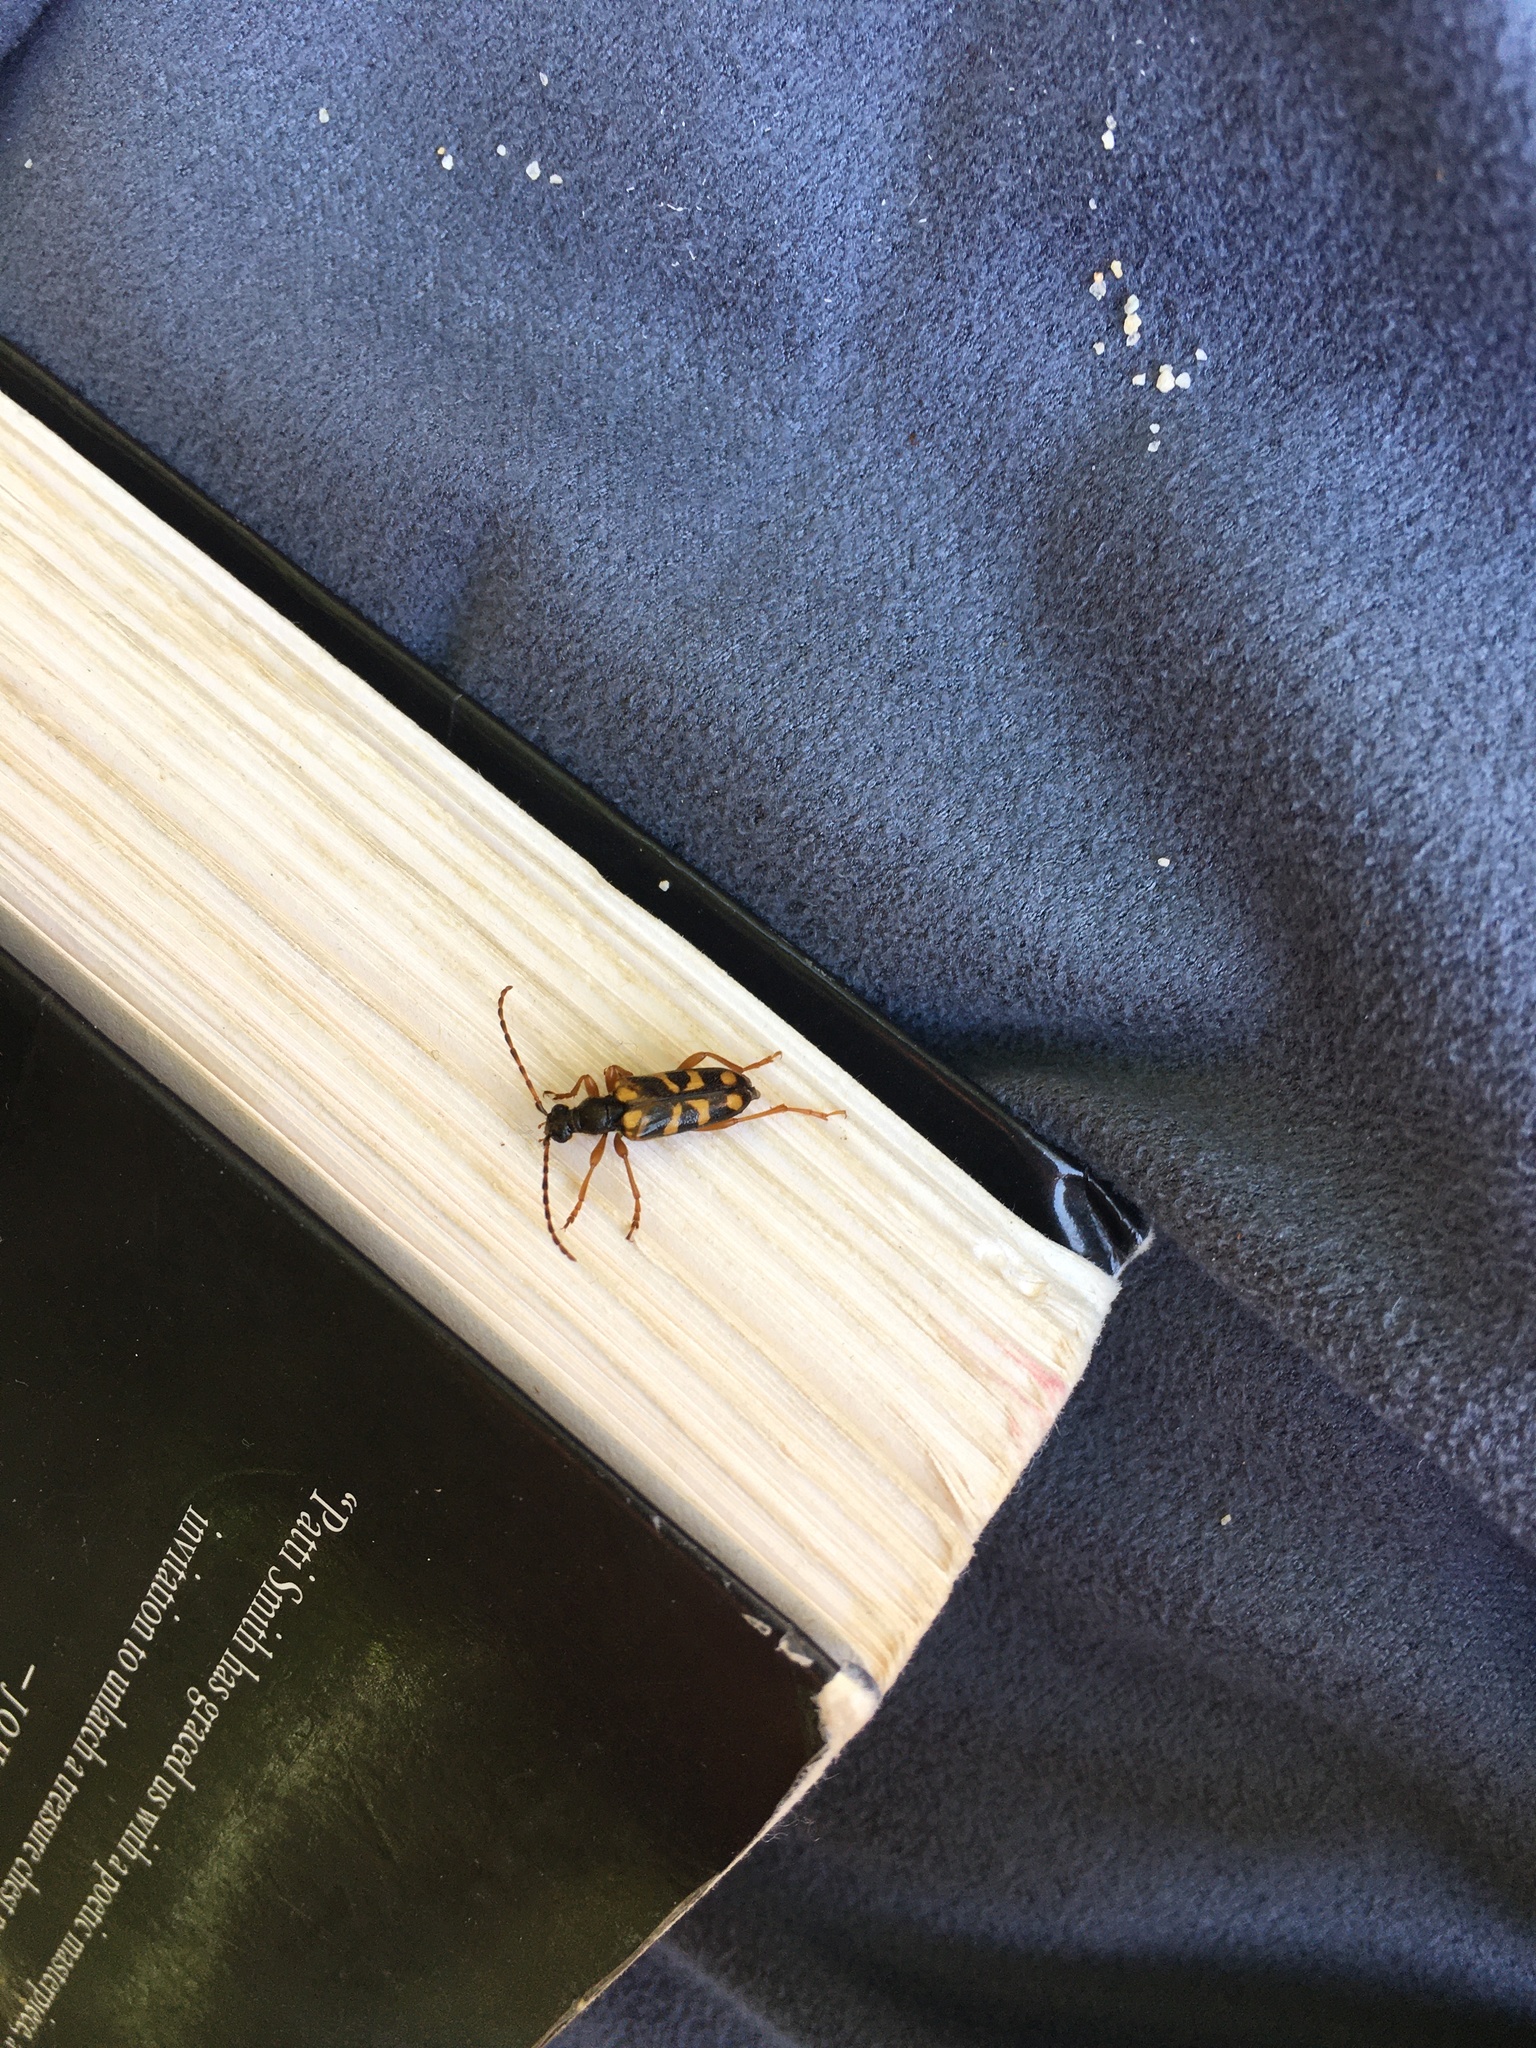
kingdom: Animalia
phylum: Arthropoda
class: Insecta
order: Coleoptera
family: Cerambycidae
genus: Xestoleptura
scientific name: Xestoleptura crassipes
